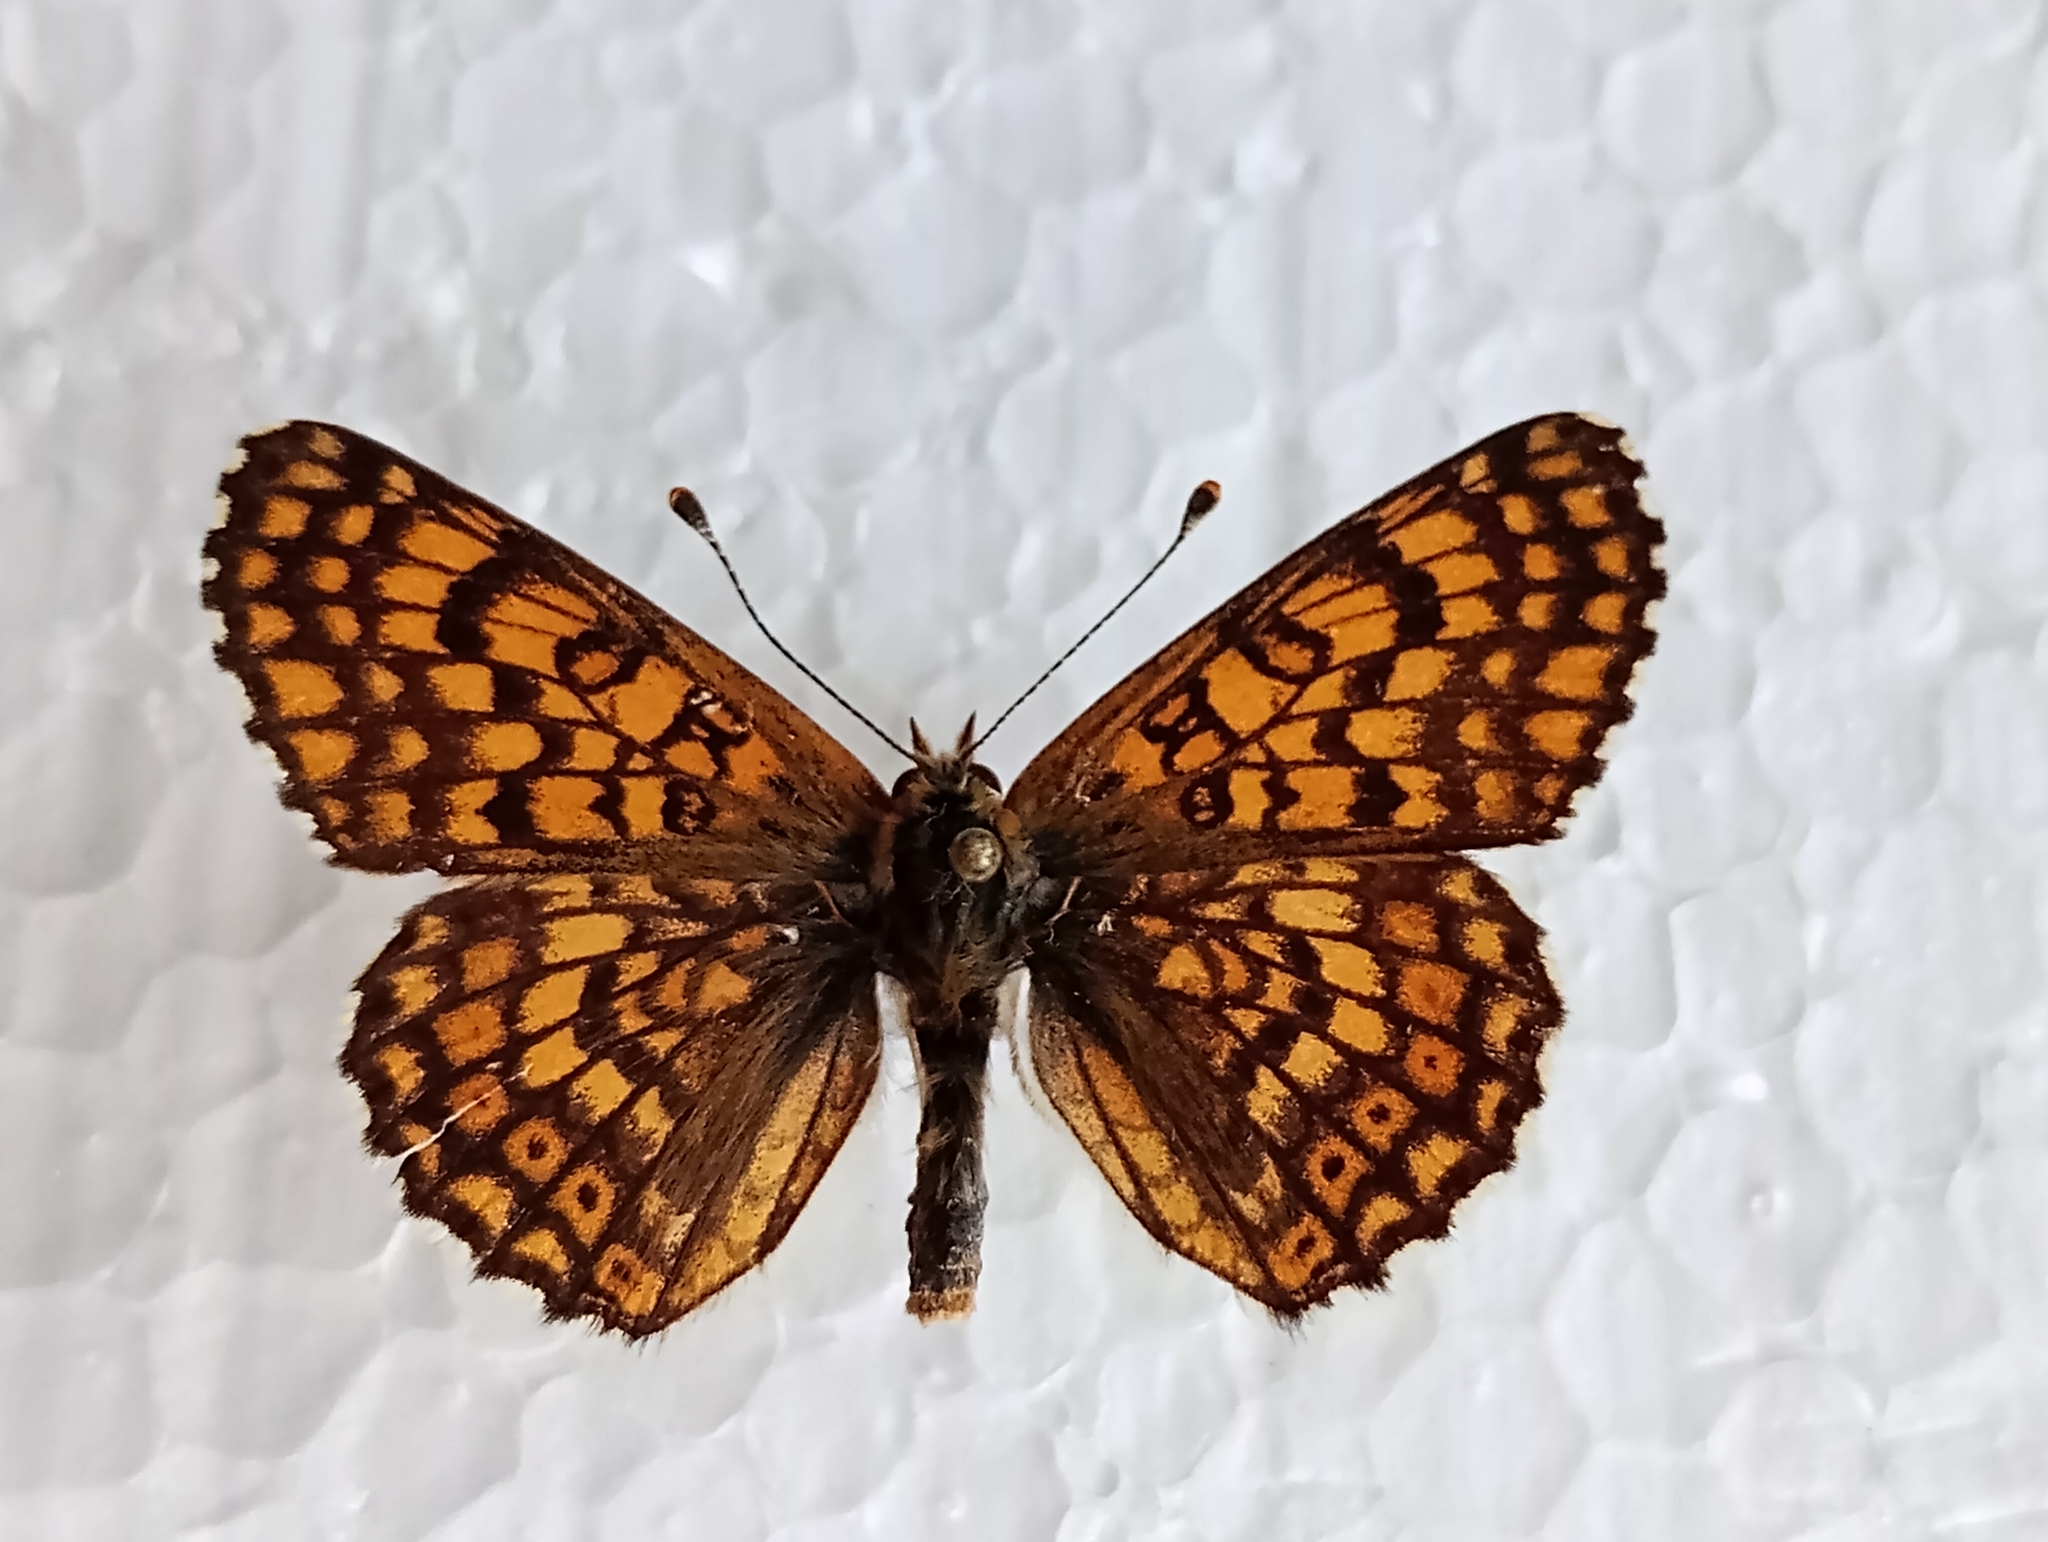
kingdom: Animalia
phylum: Arthropoda
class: Insecta
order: Lepidoptera
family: Nymphalidae
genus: Melitaea
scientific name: Melitaea cinxia
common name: Glanville fritillary
